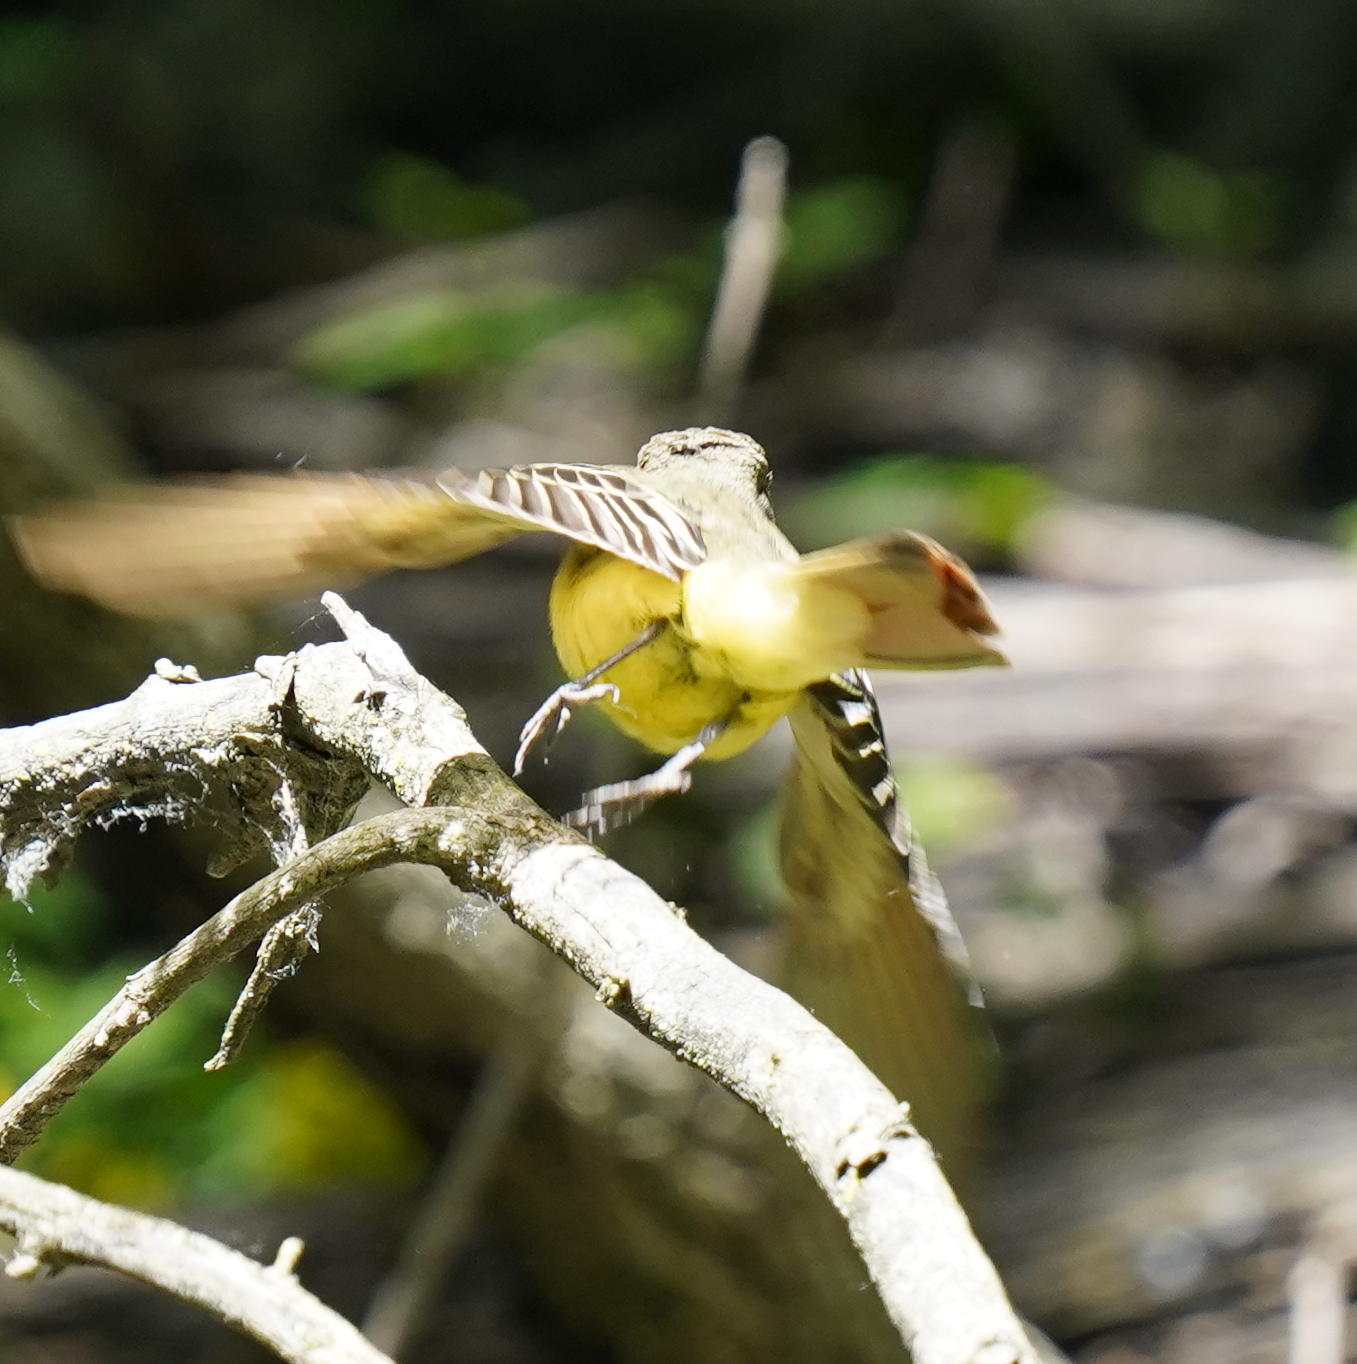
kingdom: Animalia
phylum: Chordata
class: Aves
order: Passeriformes
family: Tyrannidae
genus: Myiarchus
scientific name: Myiarchus crinitus
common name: Great crested flycatcher
